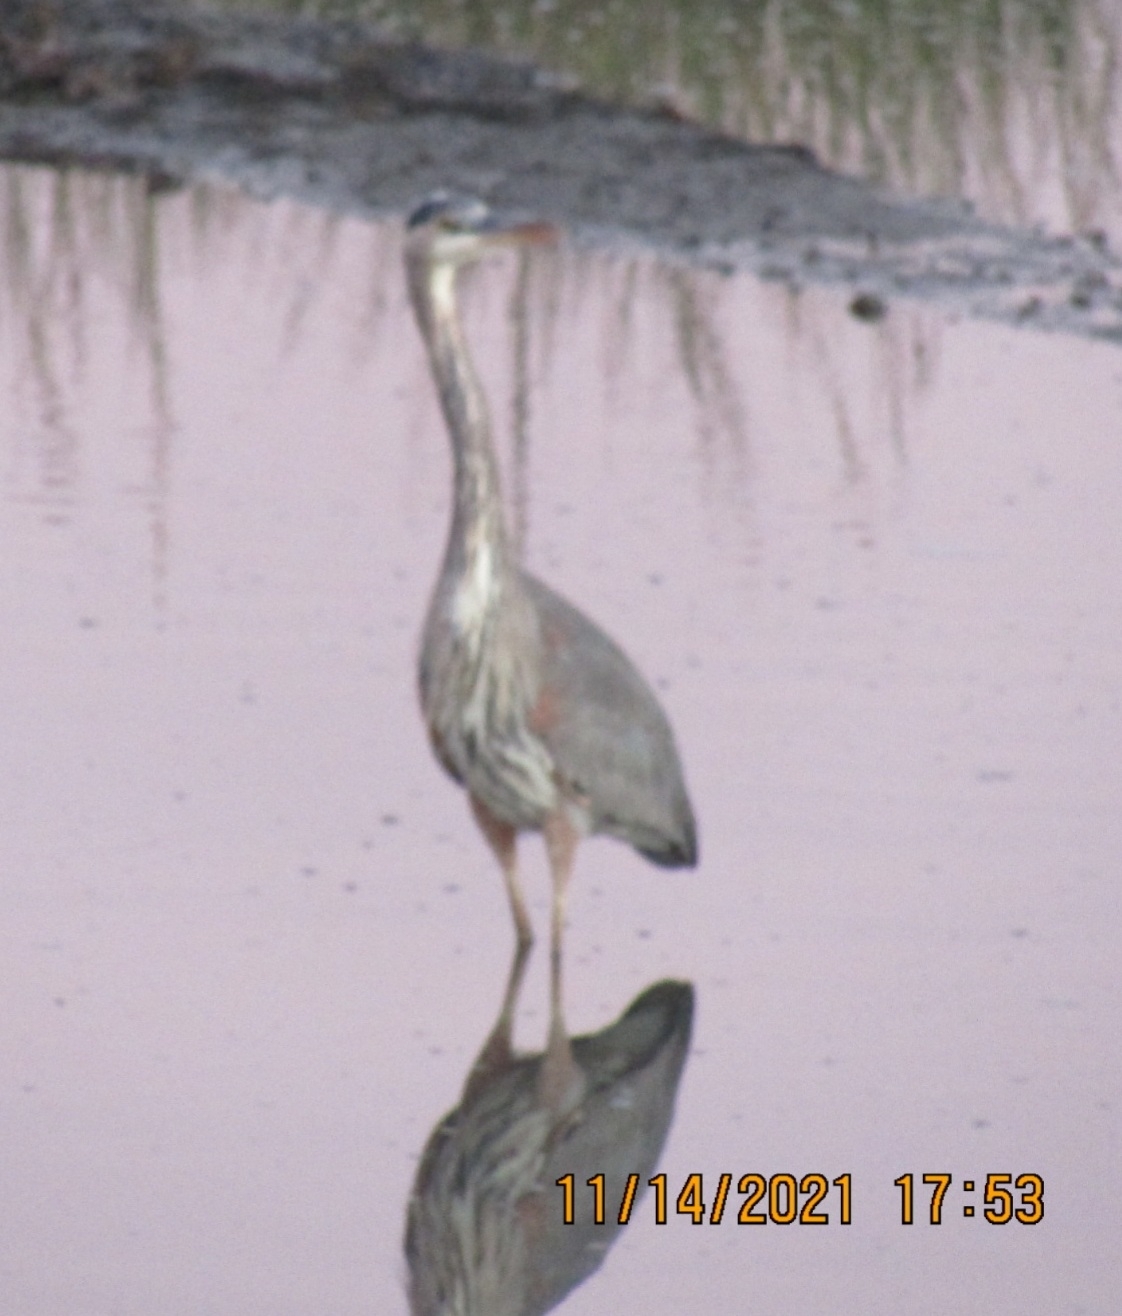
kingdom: Animalia
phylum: Chordata
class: Aves
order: Pelecaniformes
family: Ardeidae
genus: Ardea
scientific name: Ardea herodias
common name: Great blue heron
